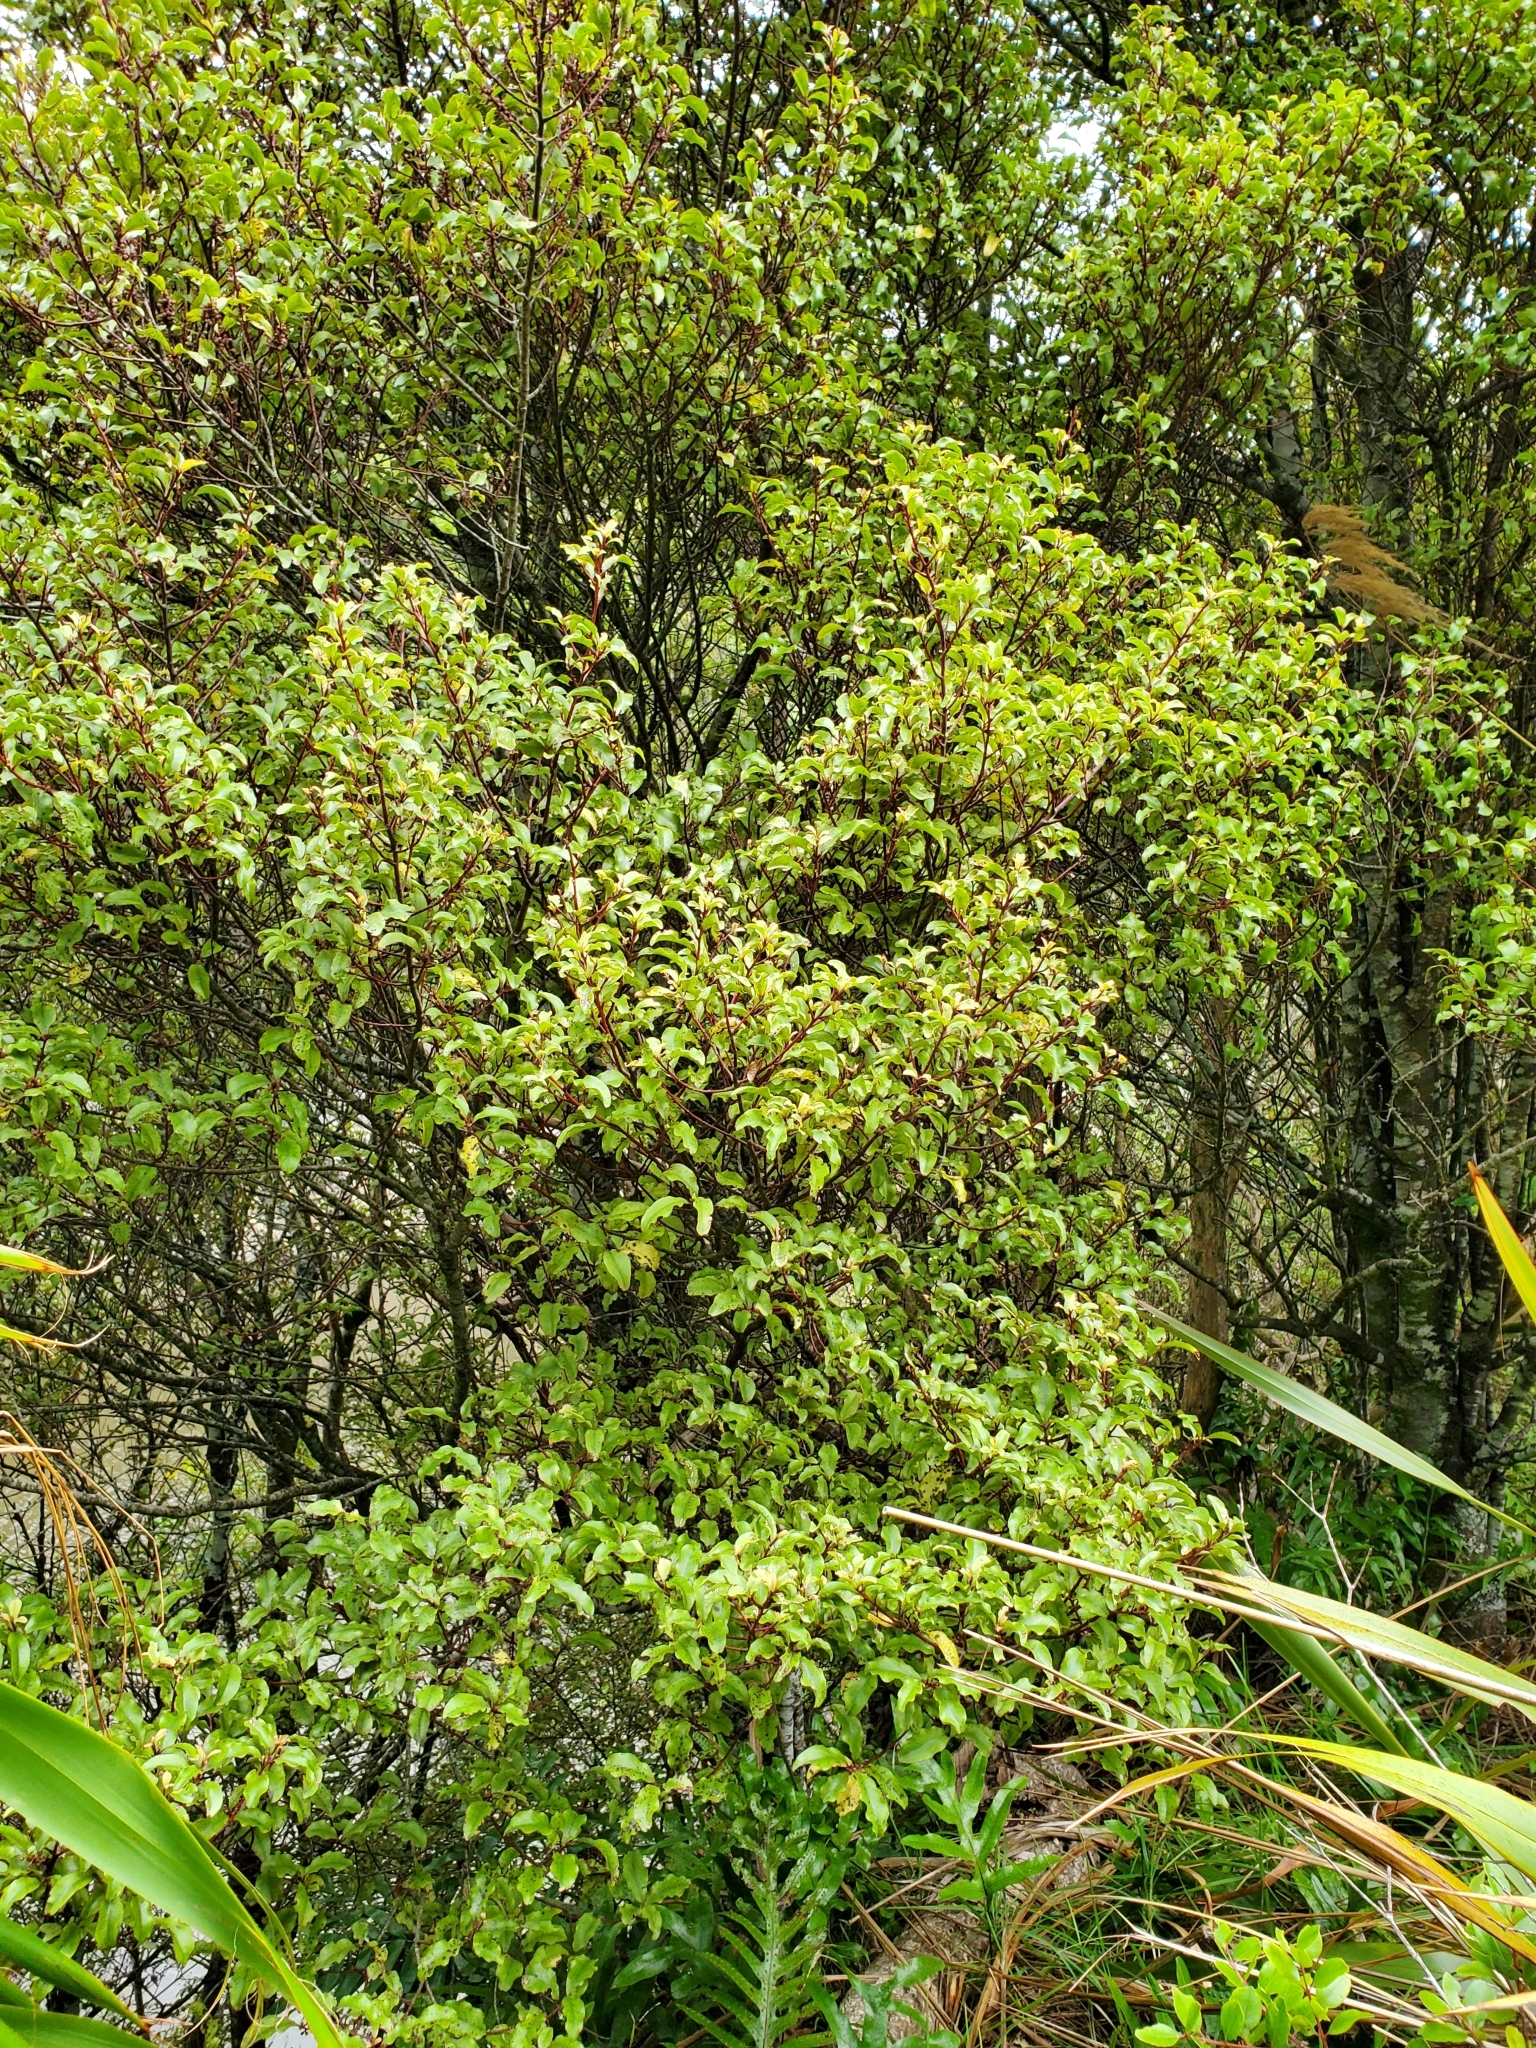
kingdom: Plantae
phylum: Tracheophyta
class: Magnoliopsida
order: Ericales
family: Primulaceae
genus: Myrsine
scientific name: Myrsine australis
